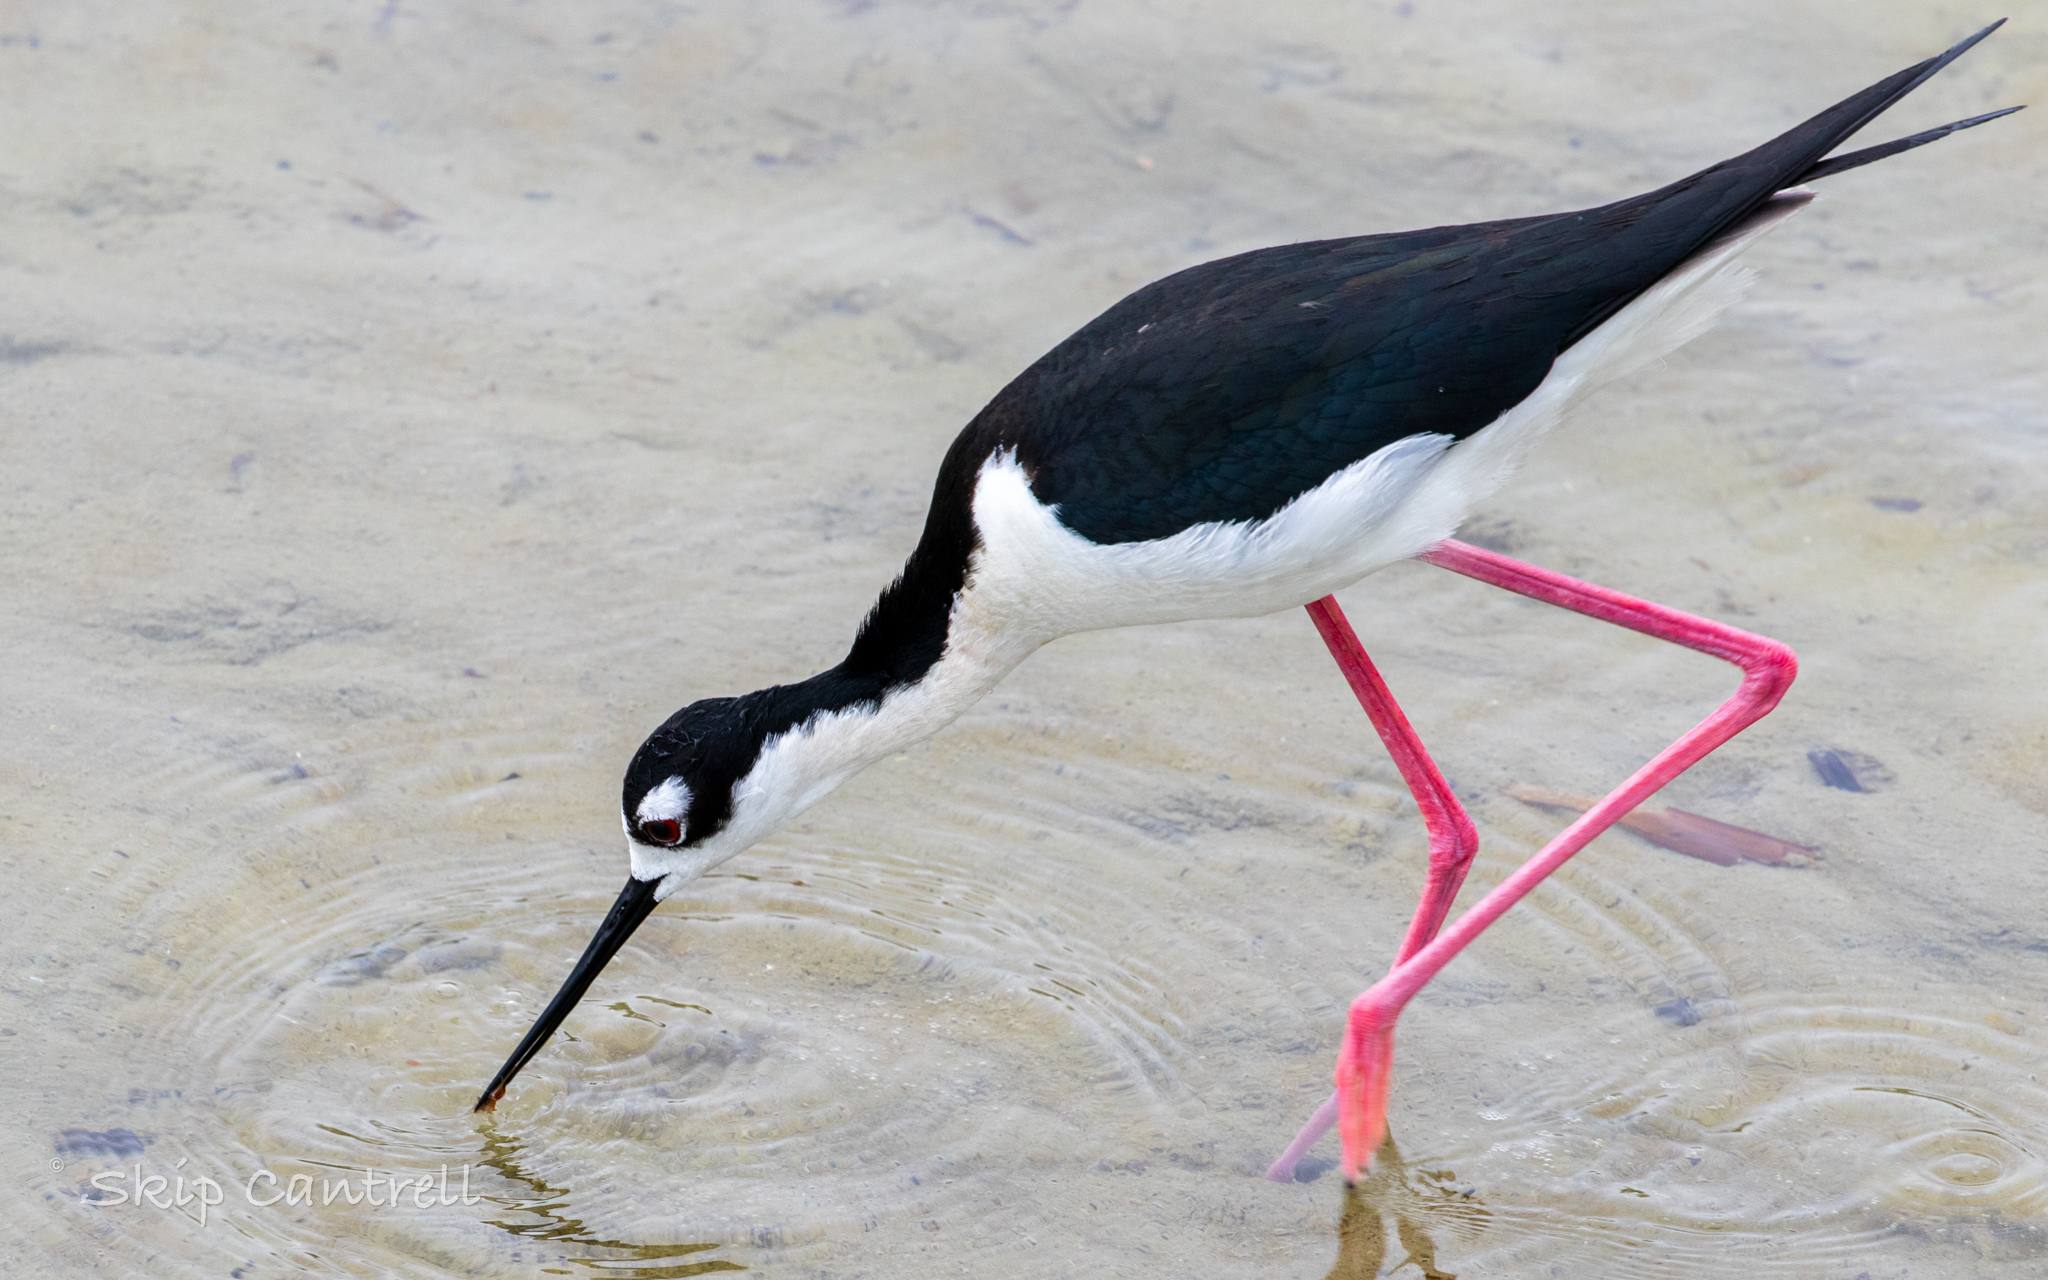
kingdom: Animalia
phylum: Chordata
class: Aves
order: Charadriiformes
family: Recurvirostridae
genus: Himantopus
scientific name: Himantopus mexicanus
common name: Black-necked stilt
